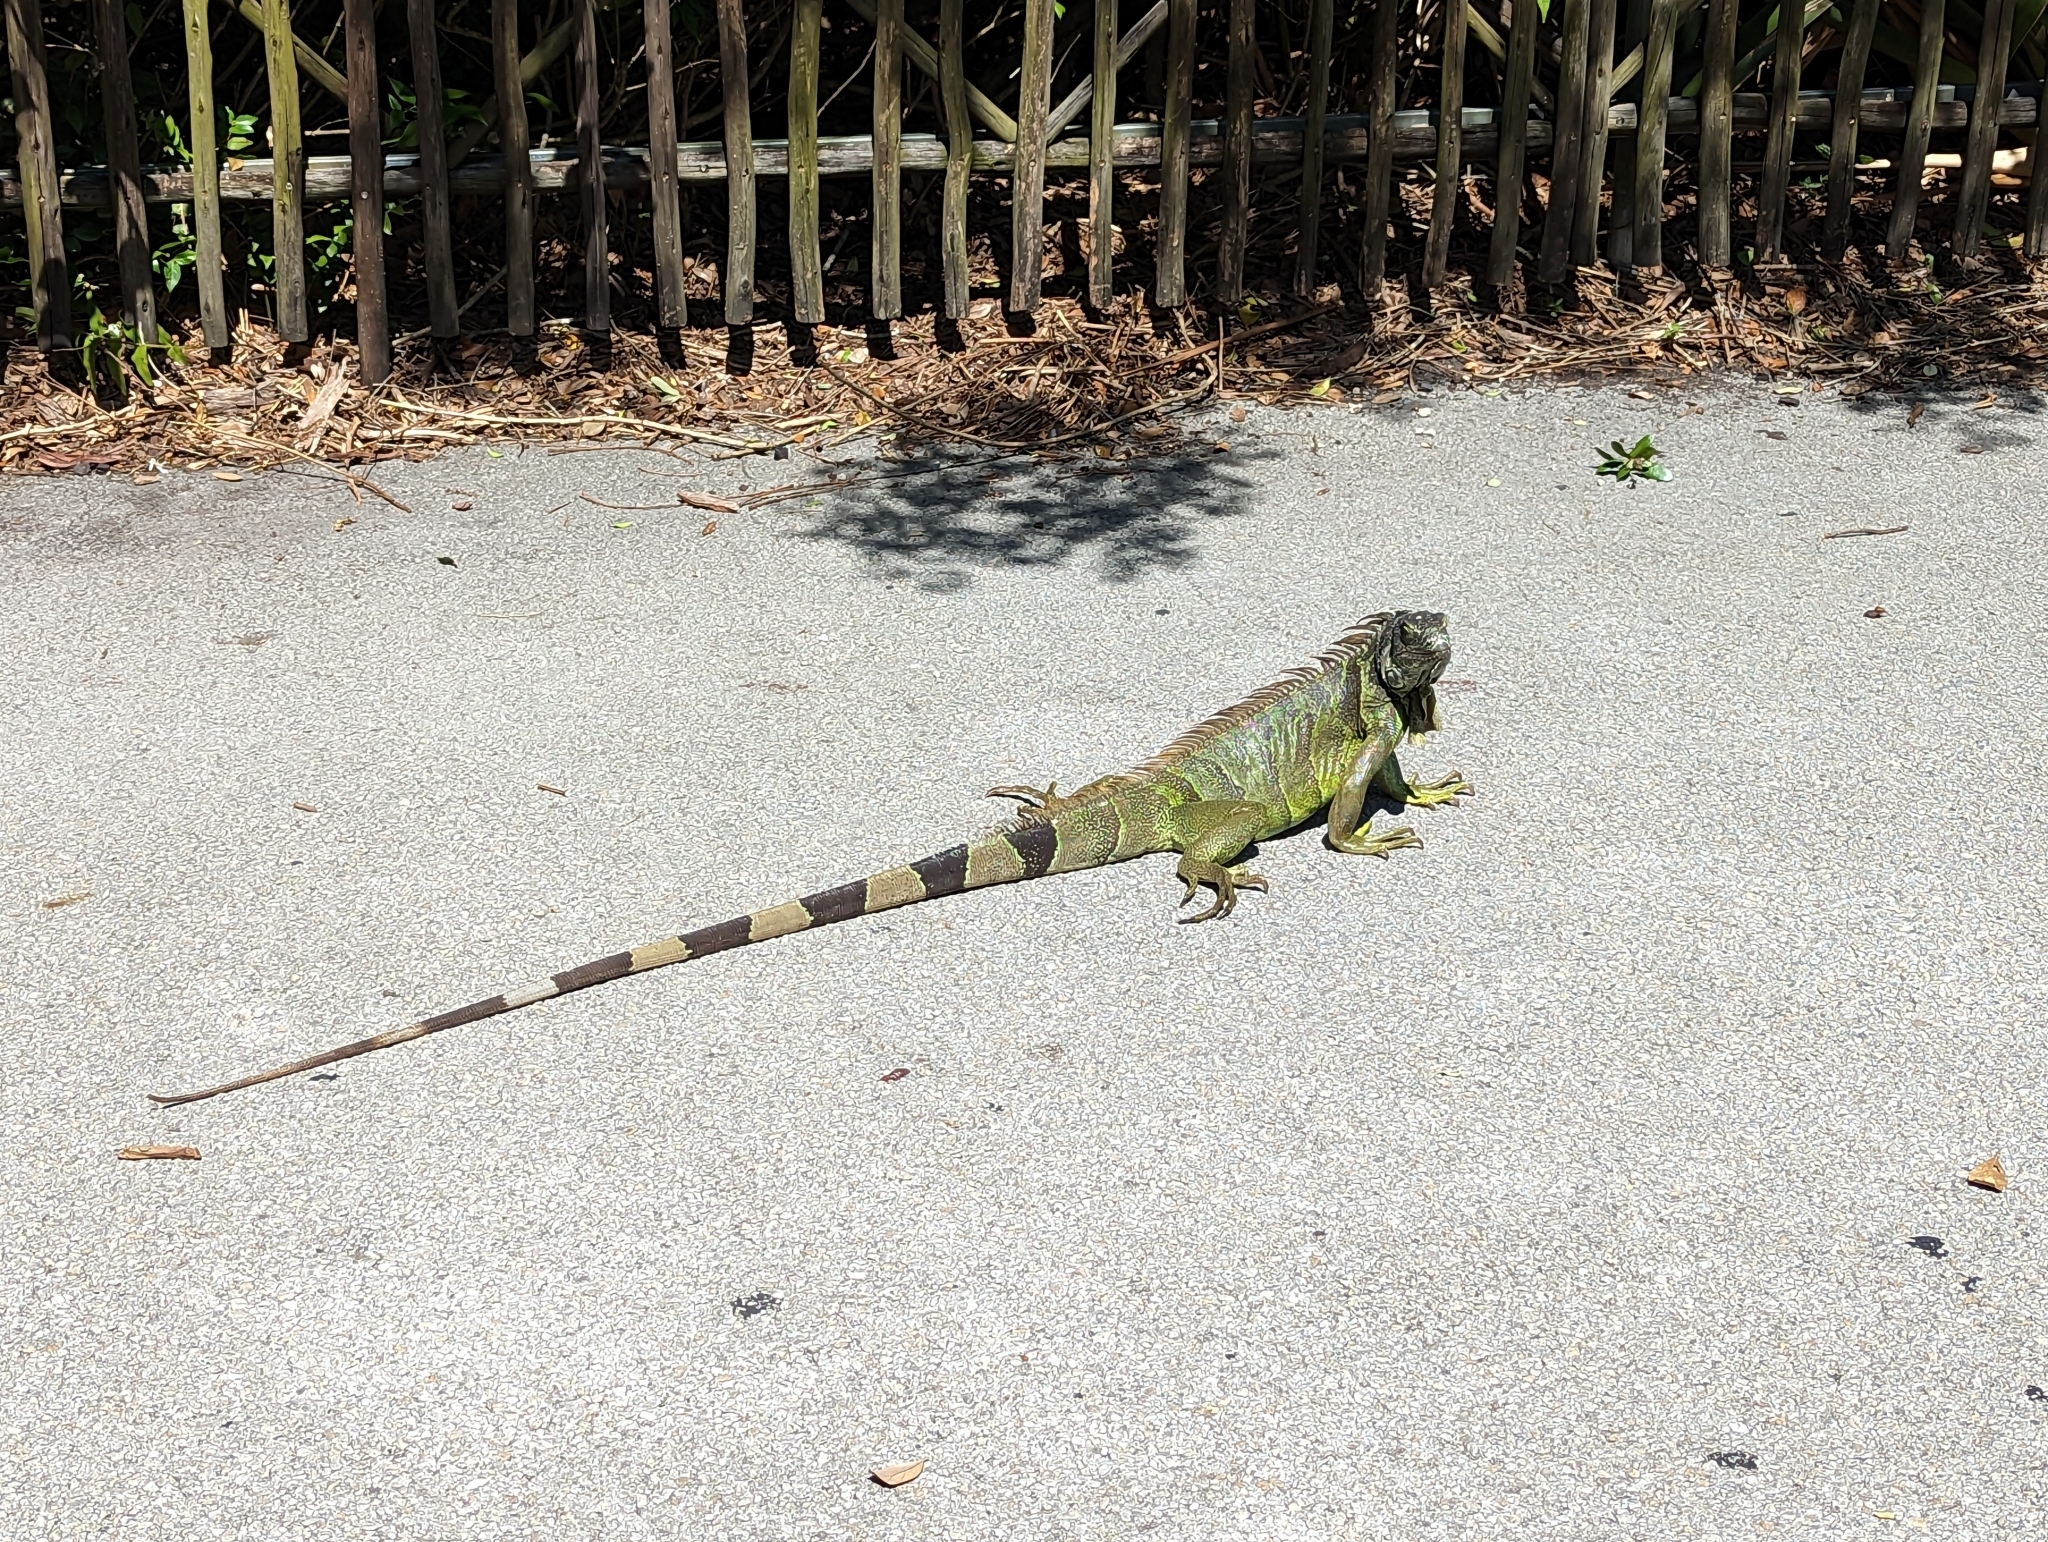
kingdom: Animalia
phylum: Chordata
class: Squamata
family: Iguanidae
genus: Iguana
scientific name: Iguana iguana
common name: Green iguana
